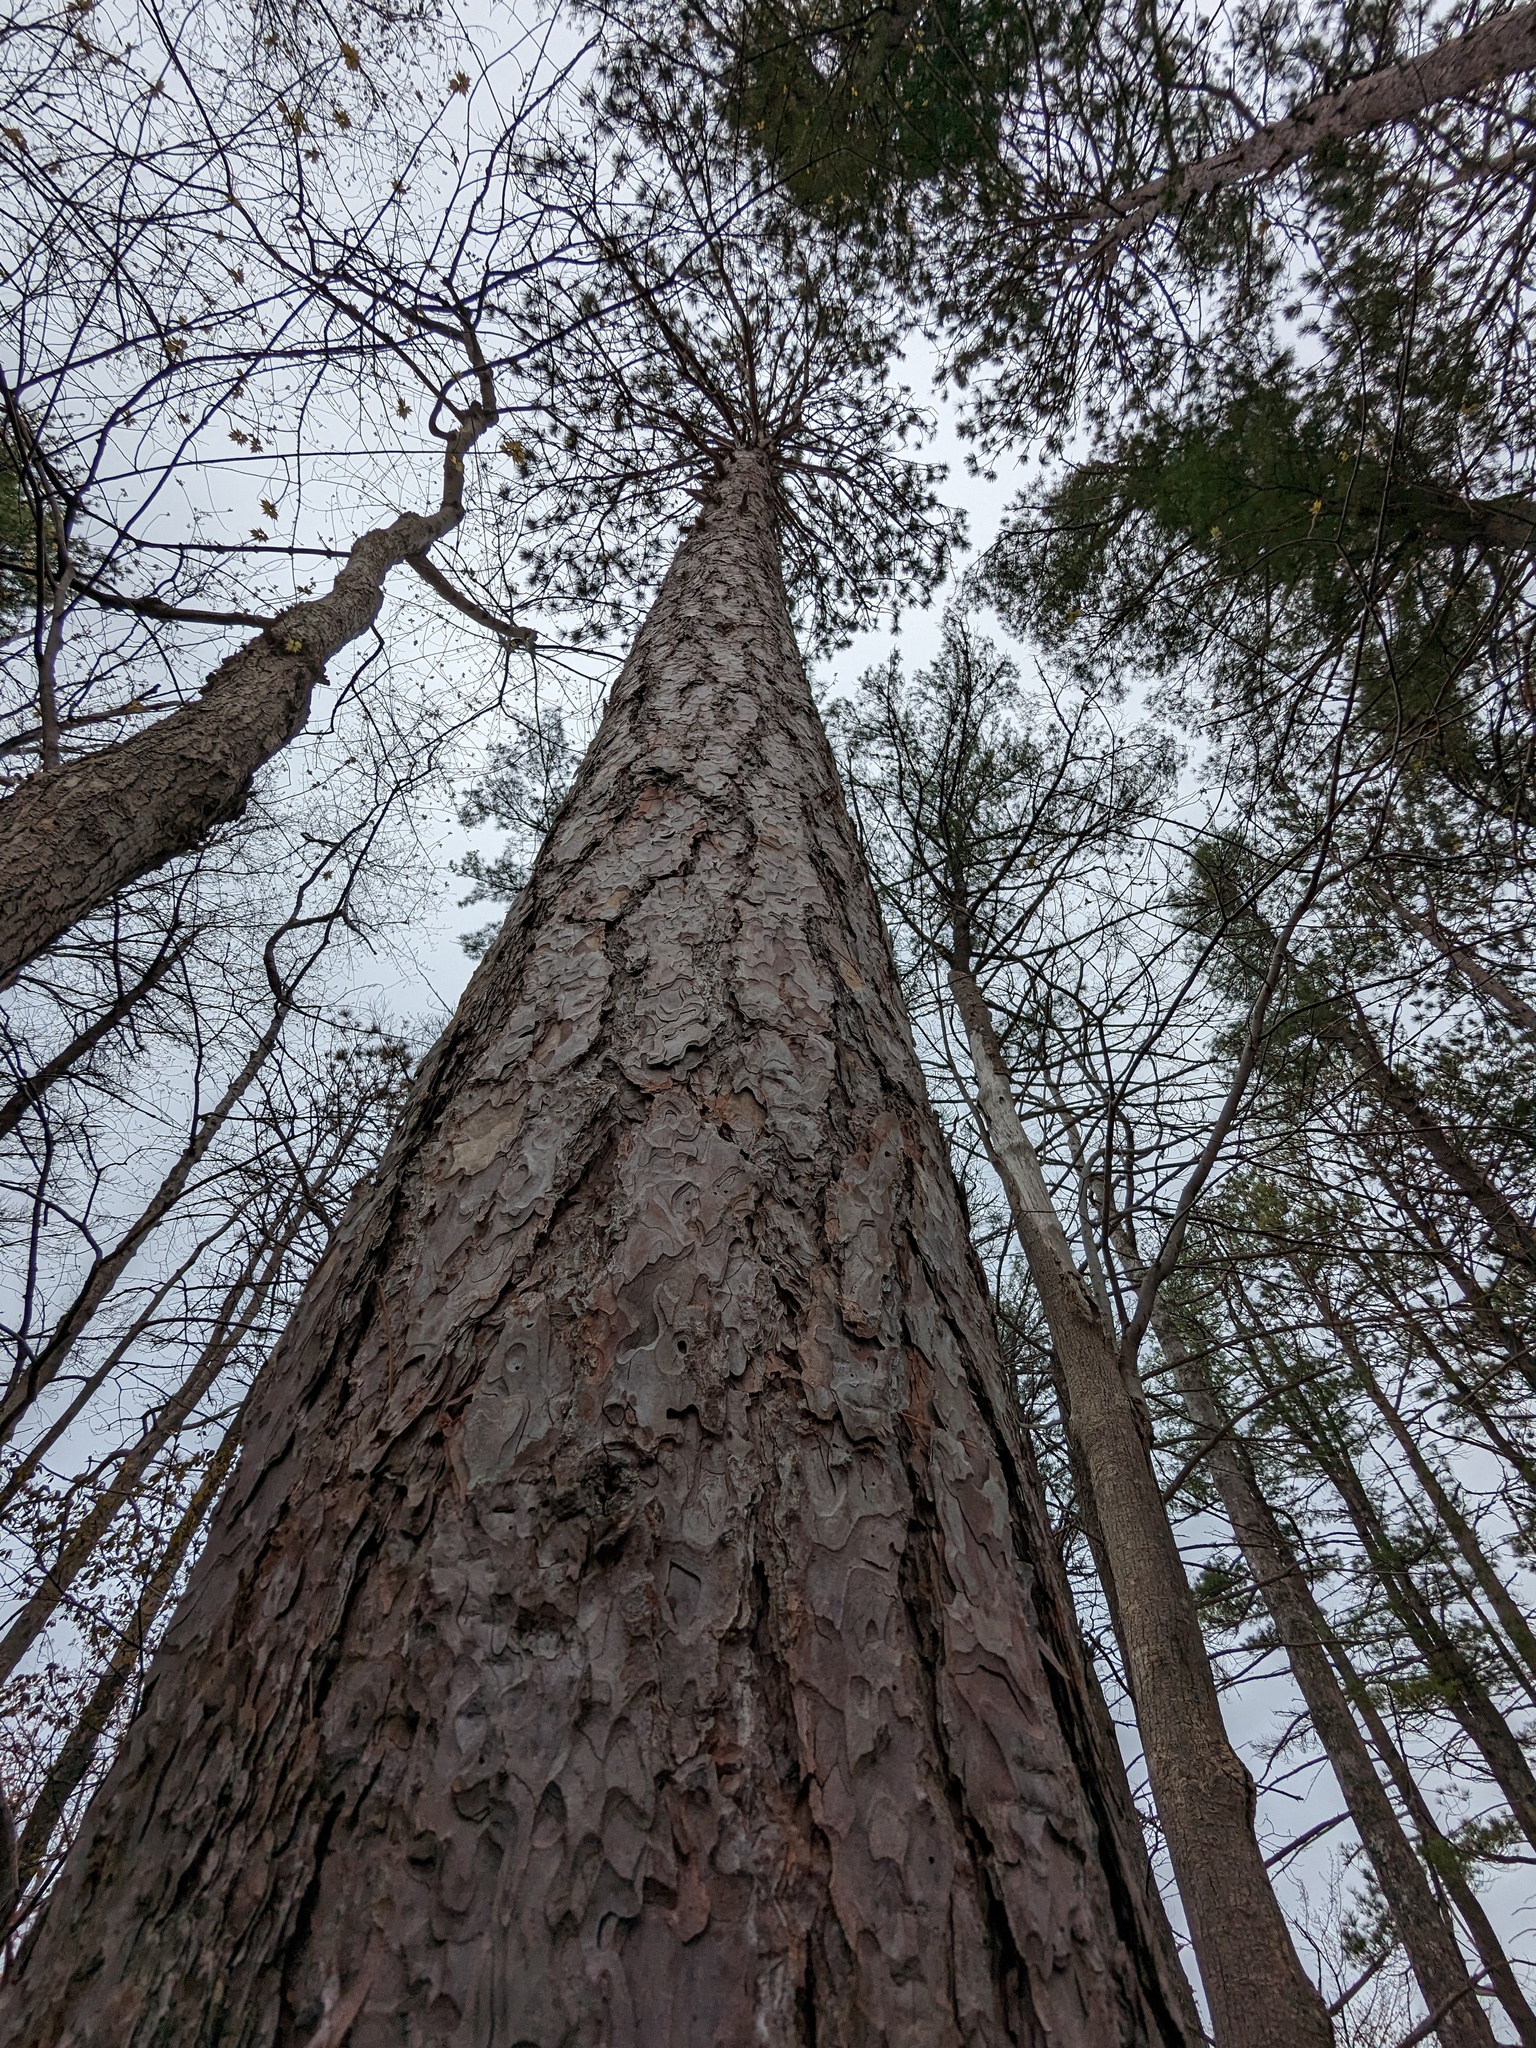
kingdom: Plantae
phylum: Tracheophyta
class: Pinopsida
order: Pinales
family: Pinaceae
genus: Pinus
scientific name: Pinus resinosa
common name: Norway pine
